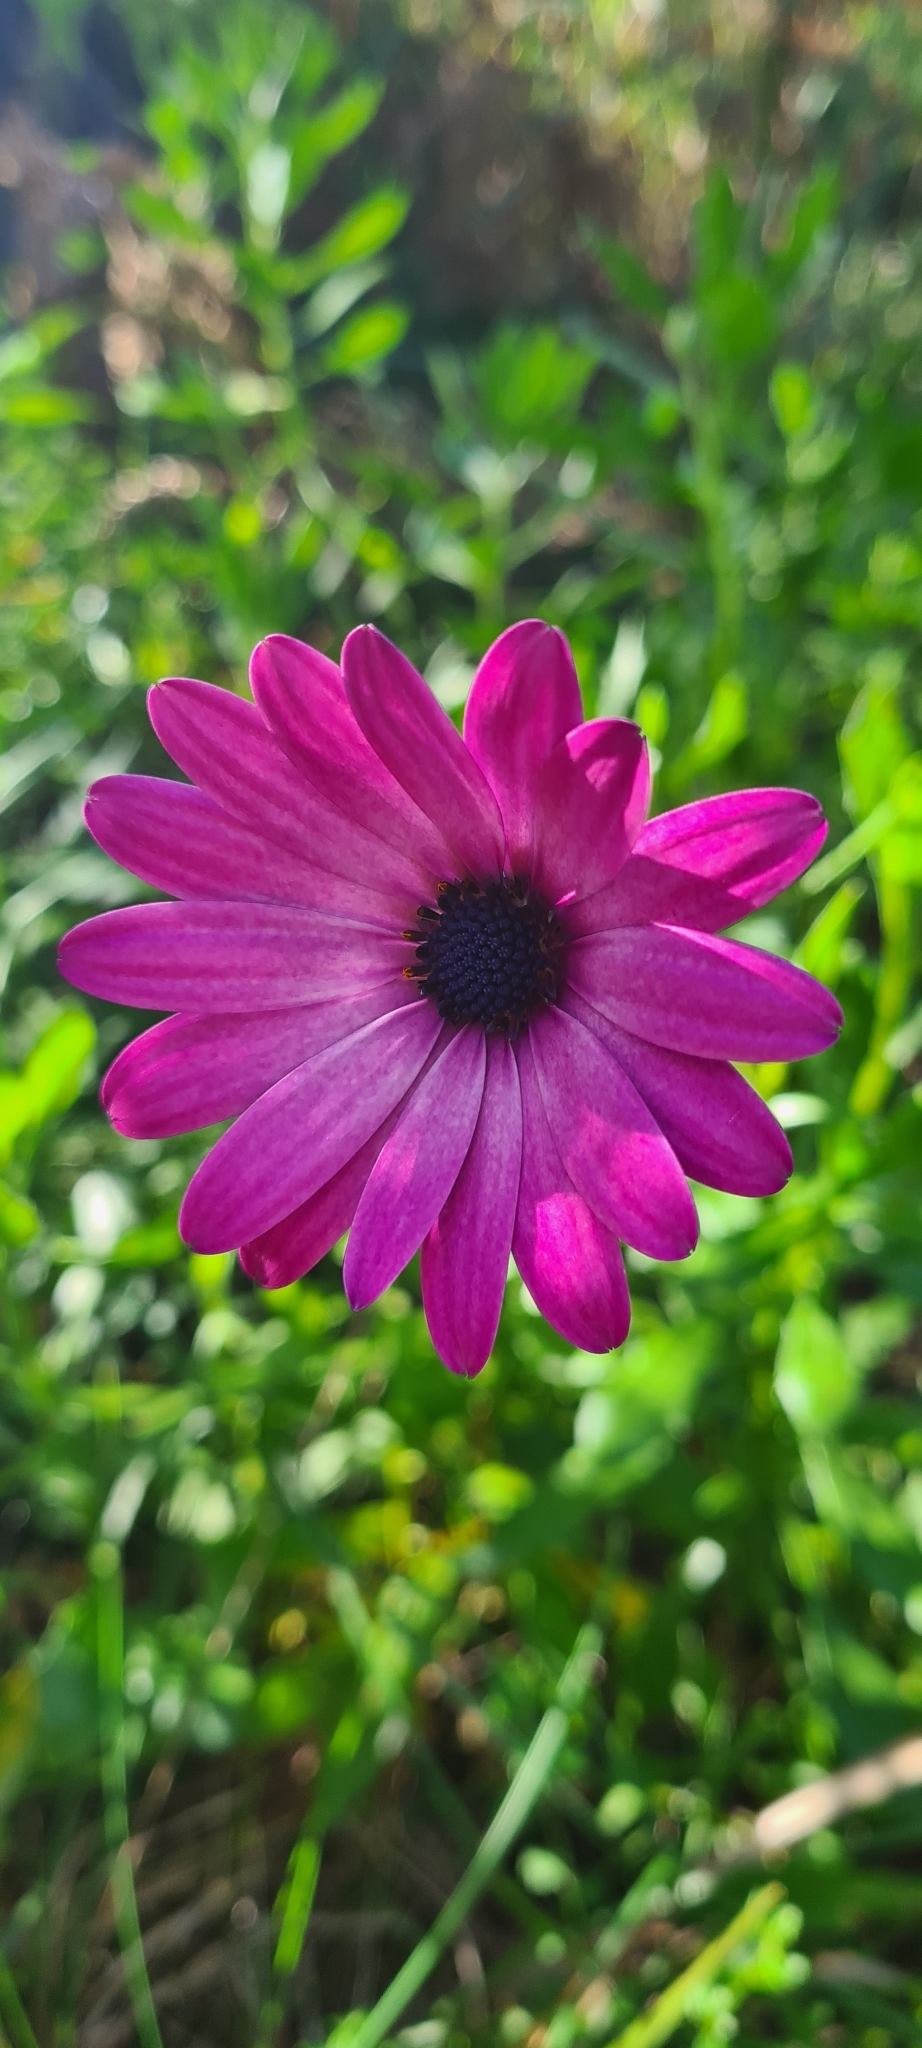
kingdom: Plantae
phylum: Tracheophyta
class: Magnoliopsida
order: Asterales
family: Asteraceae
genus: Dimorphotheca
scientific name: Dimorphotheca ecklonis
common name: Vanstaden's river daisy
